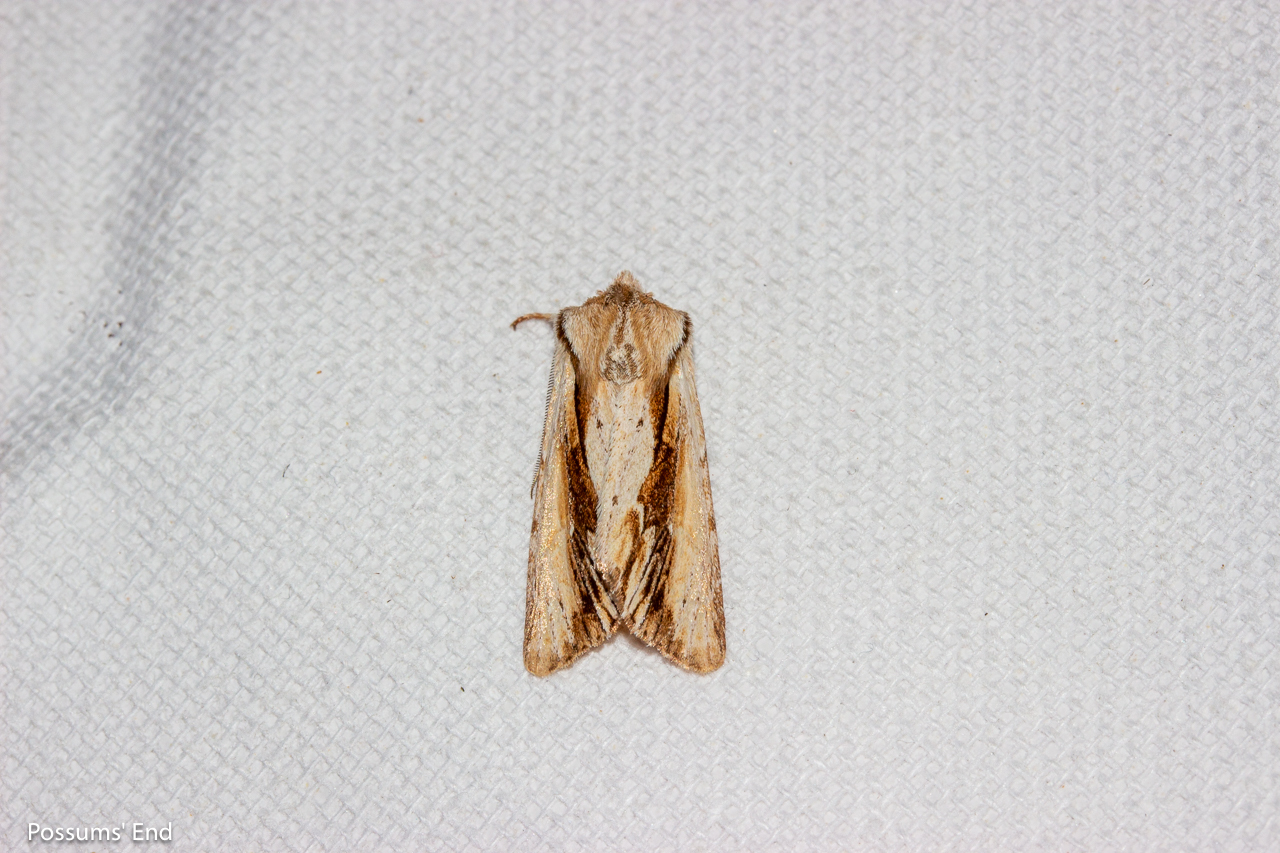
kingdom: Animalia
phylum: Arthropoda
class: Insecta
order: Lepidoptera
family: Noctuidae
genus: Ichneutica
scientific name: Ichneutica
